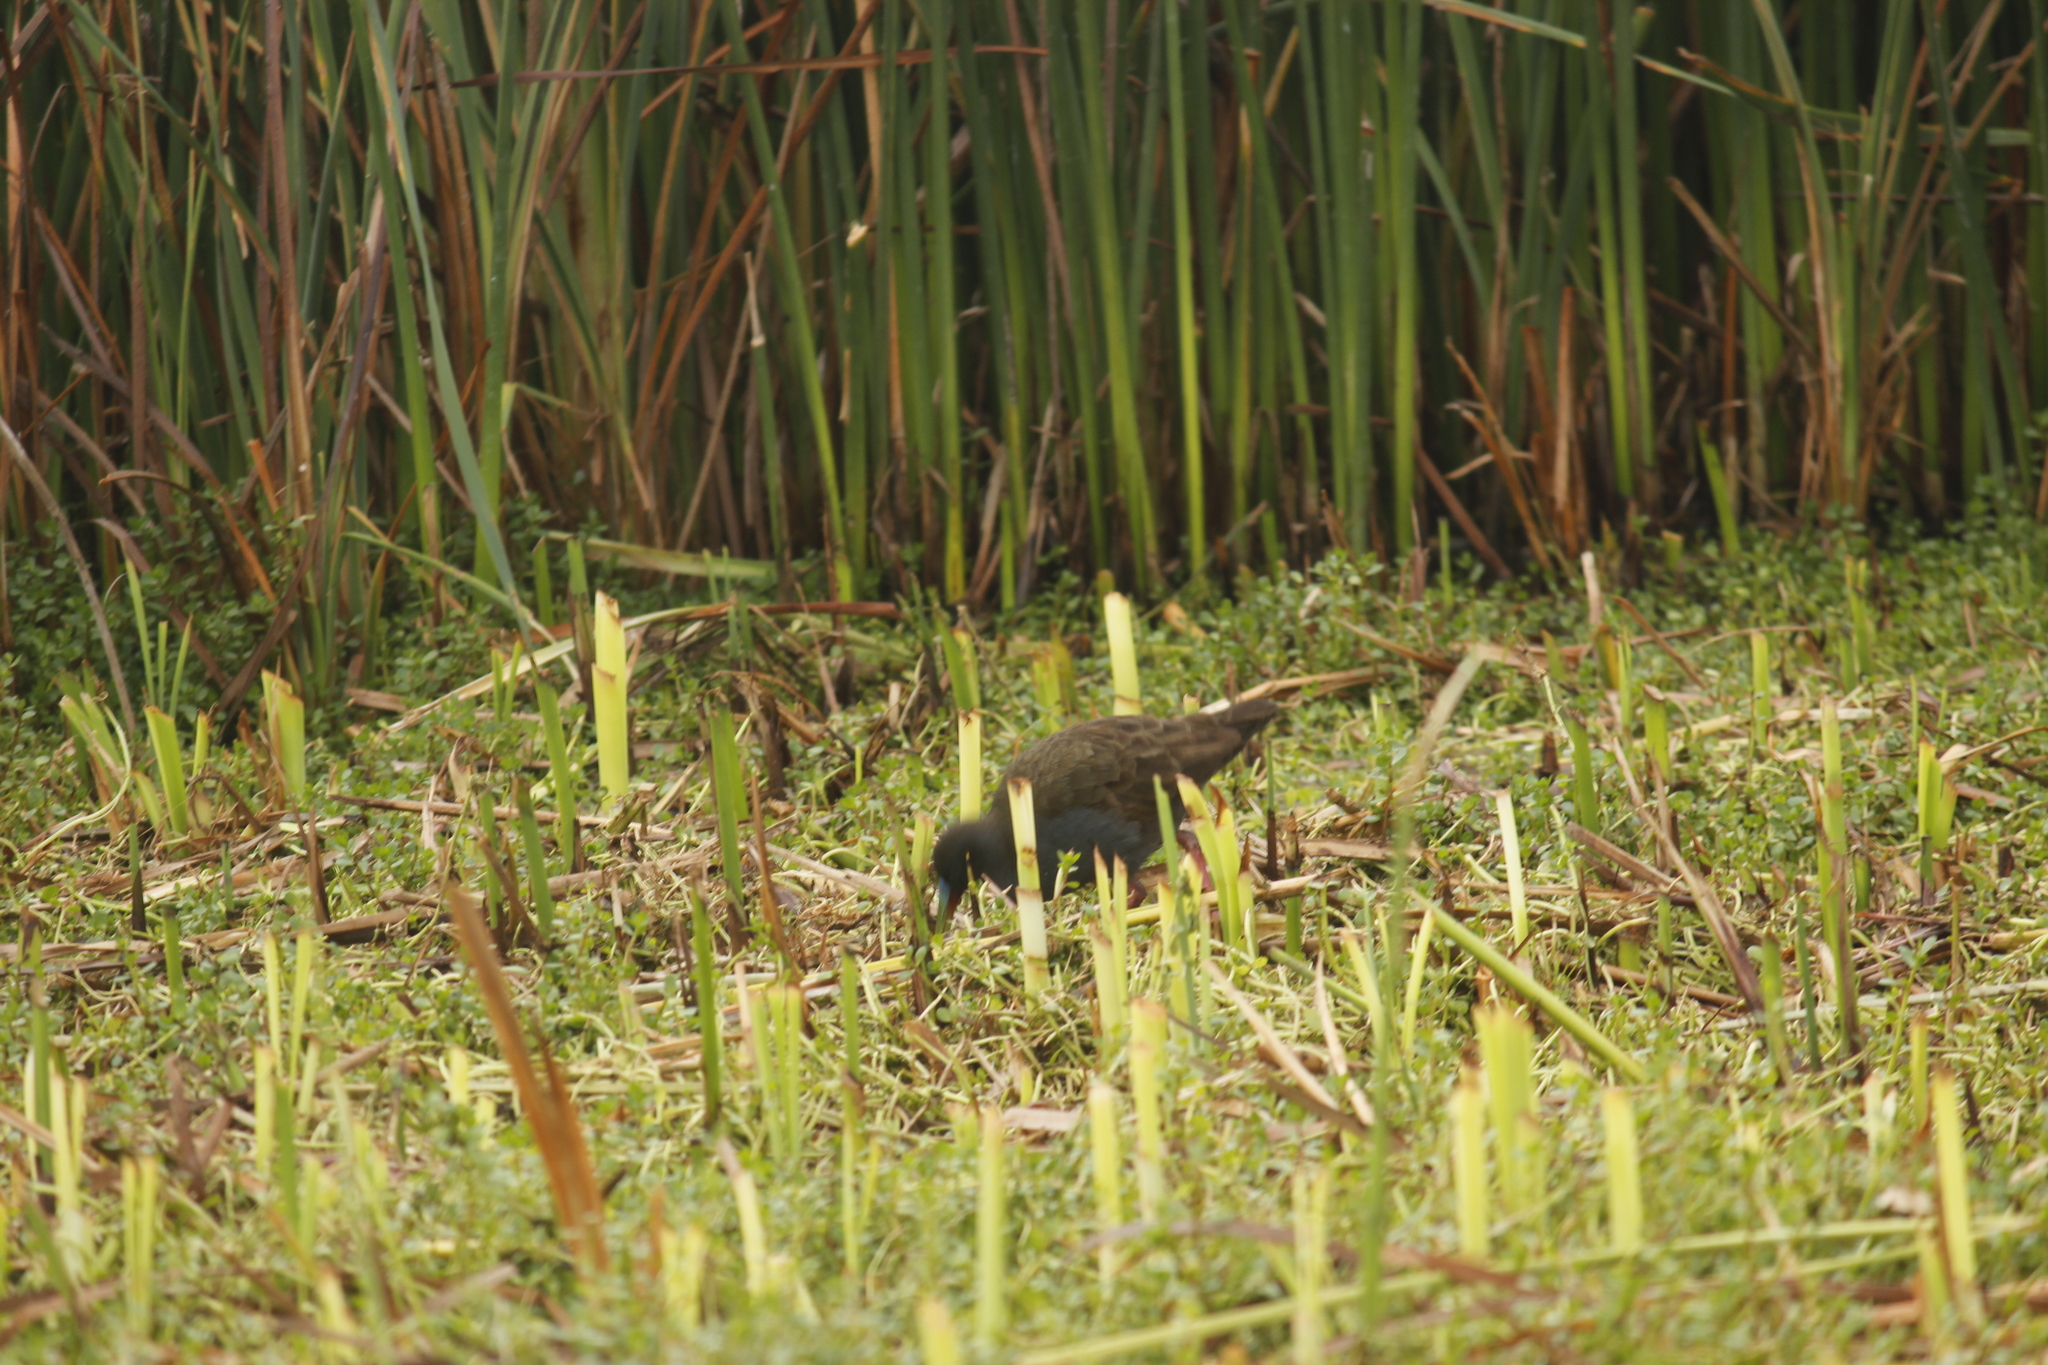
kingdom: Animalia
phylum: Chordata
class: Aves
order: Gruiformes
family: Rallidae
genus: Pardirallus
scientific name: Pardirallus sanguinolentus
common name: Plumbeous rail
